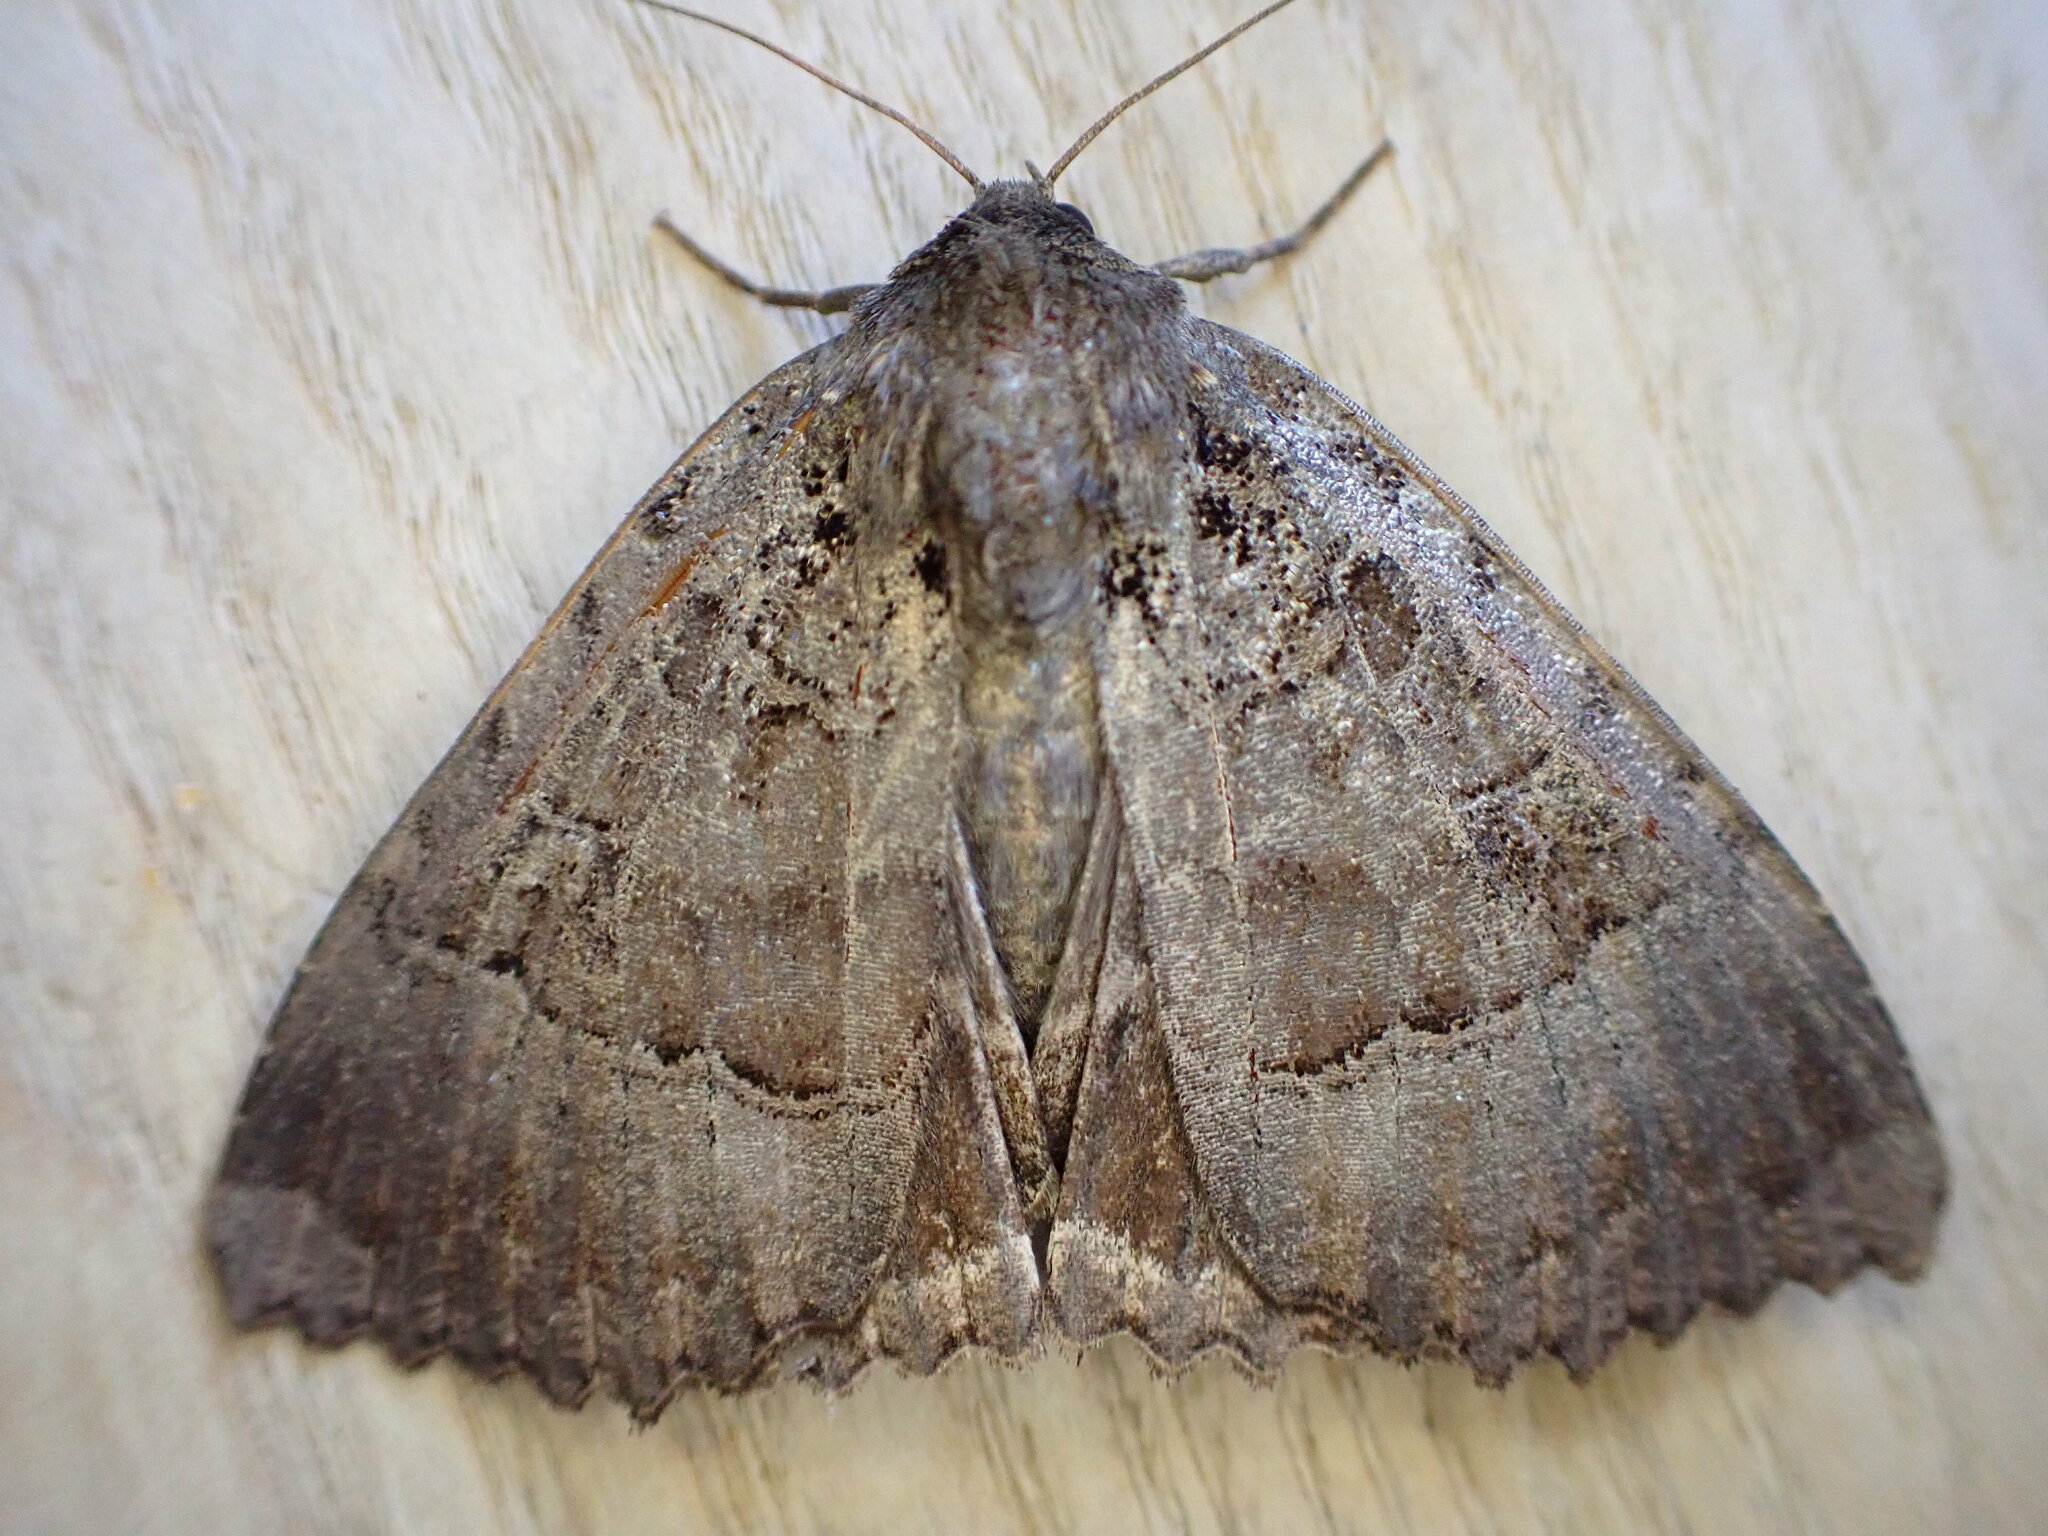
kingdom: Animalia
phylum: Arthropoda
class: Insecta
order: Lepidoptera
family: Noctuidae
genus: Mormo
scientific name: Mormo maura
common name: Old lady
